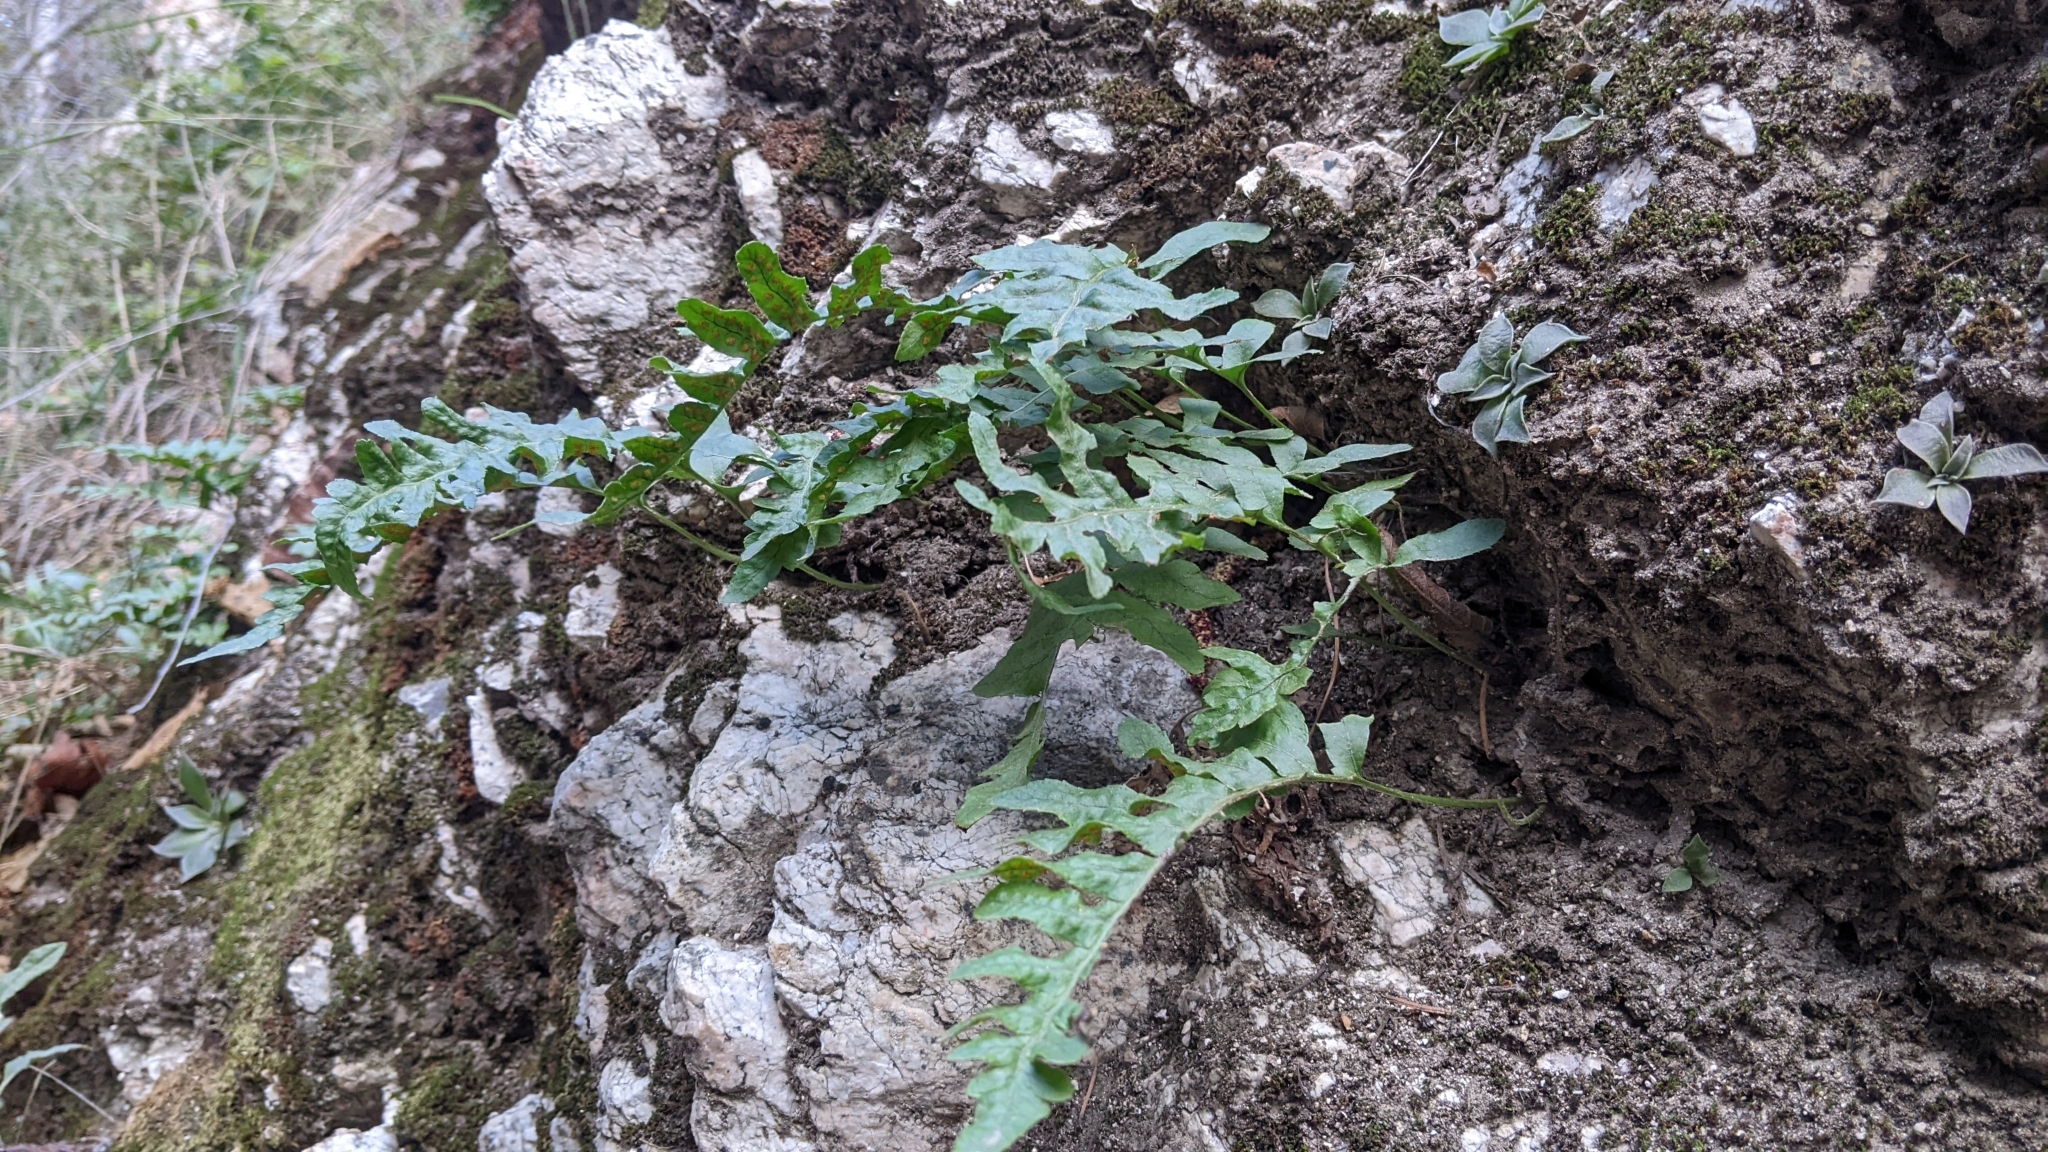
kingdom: Plantae
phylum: Tracheophyta
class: Polypodiopsida
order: Polypodiales
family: Polypodiaceae
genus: Polypodium
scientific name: Polypodium californicum
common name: California polypody
